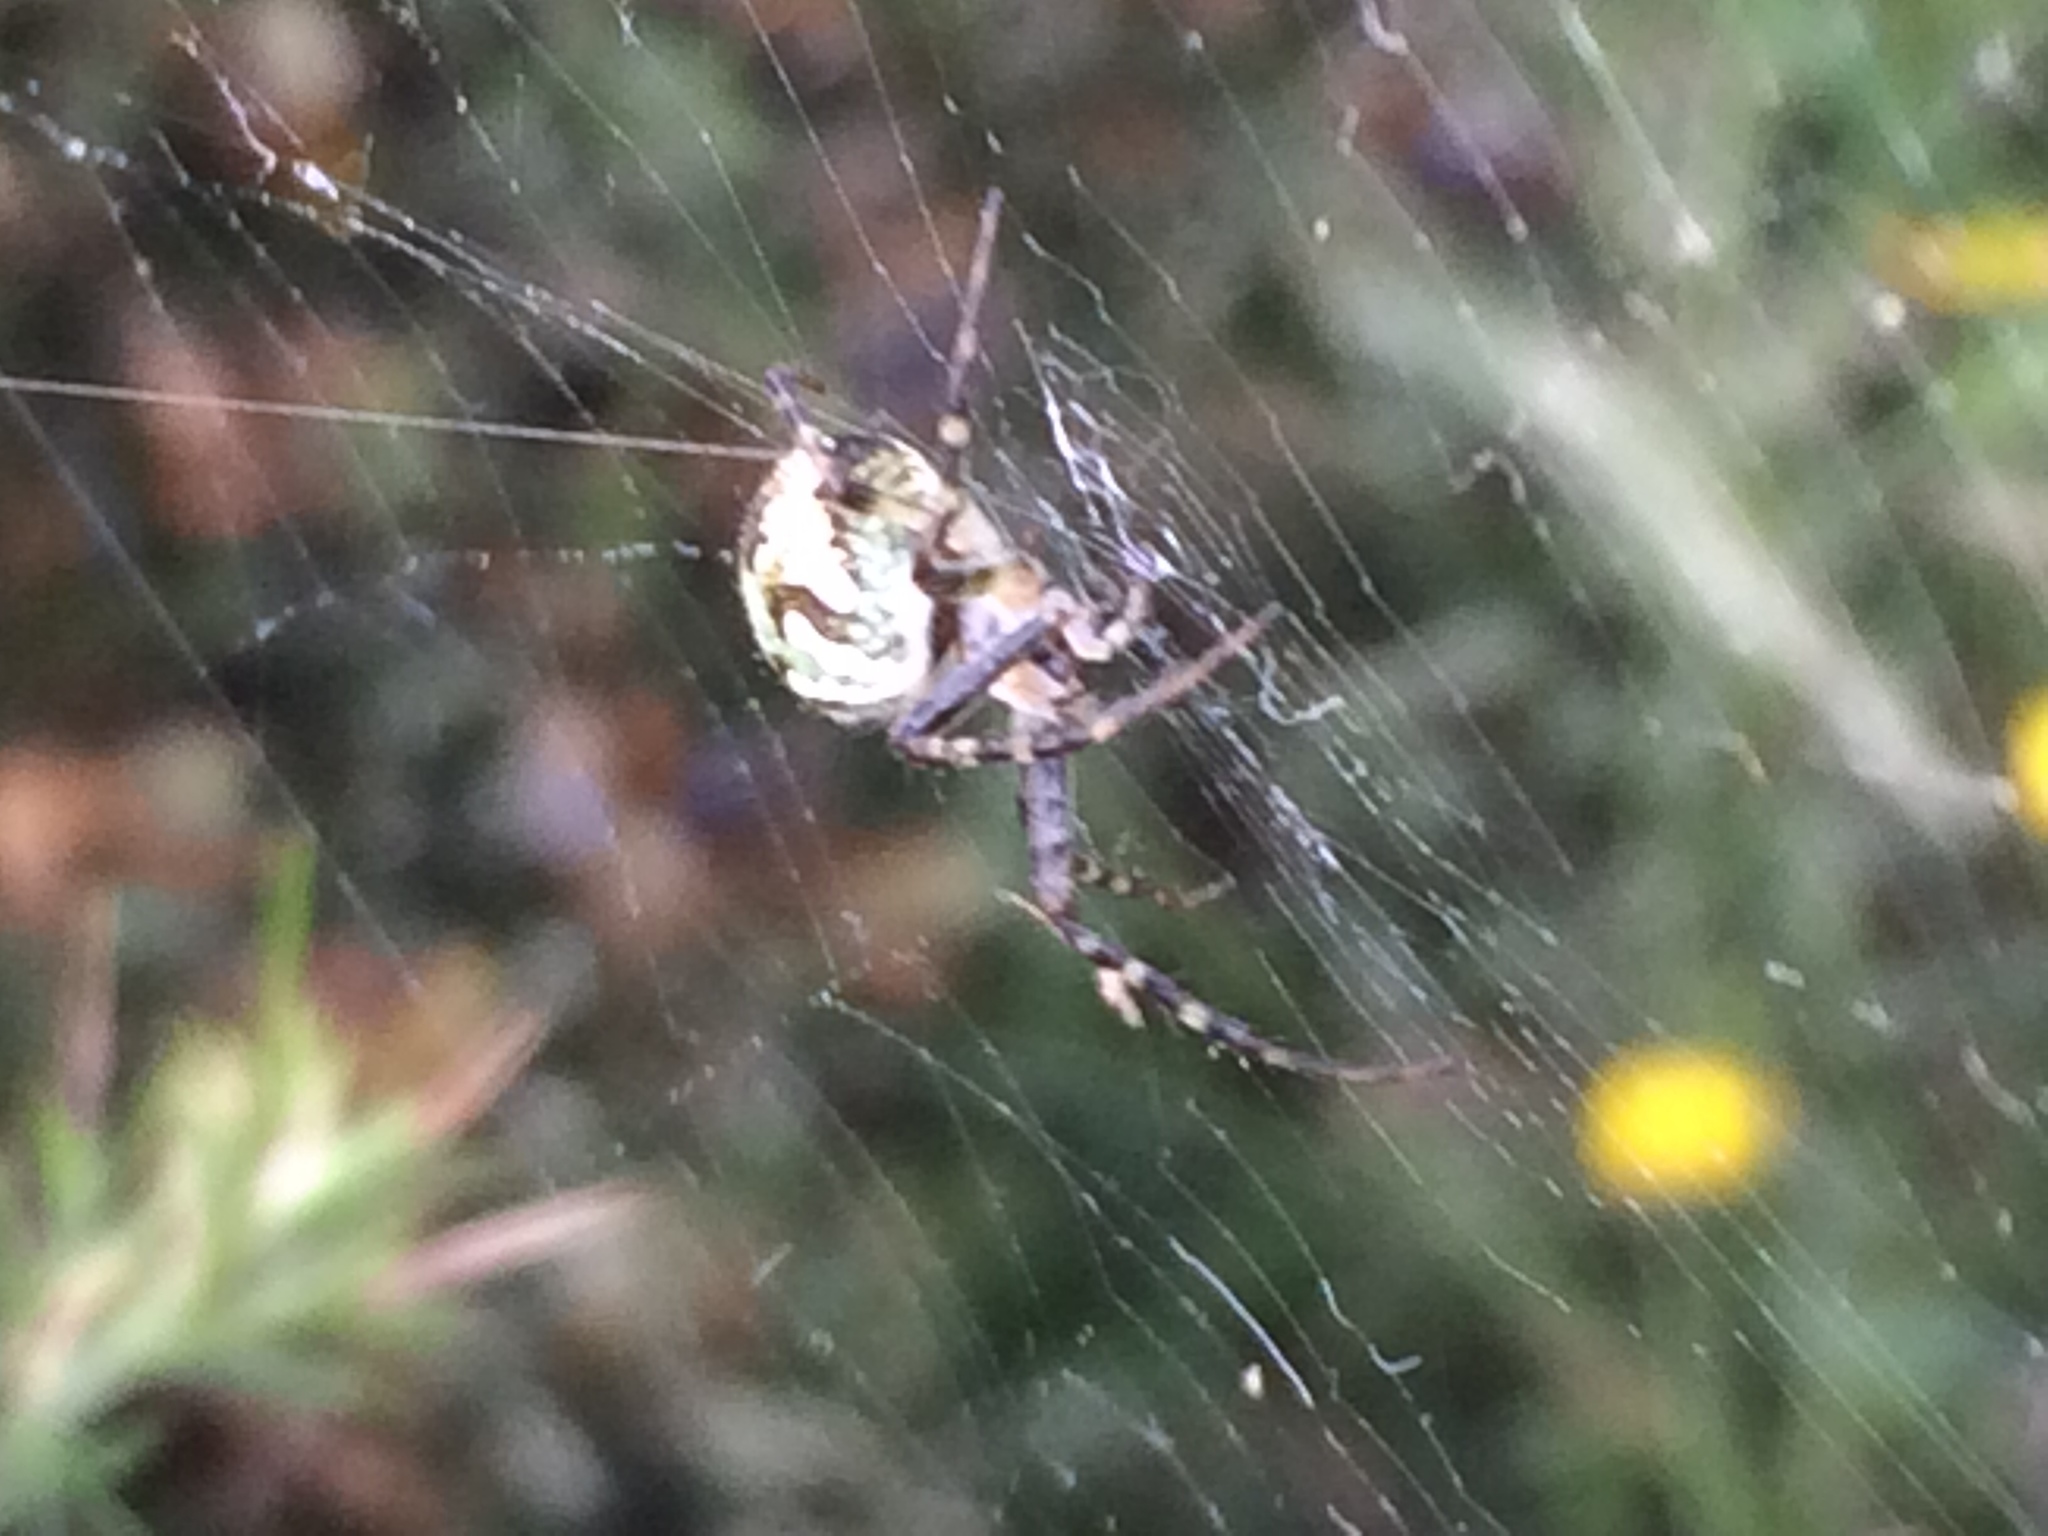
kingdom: Animalia
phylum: Arthropoda
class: Arachnida
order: Araneae
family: Araneidae
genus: Novaranea
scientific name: Novaranea queribunda
